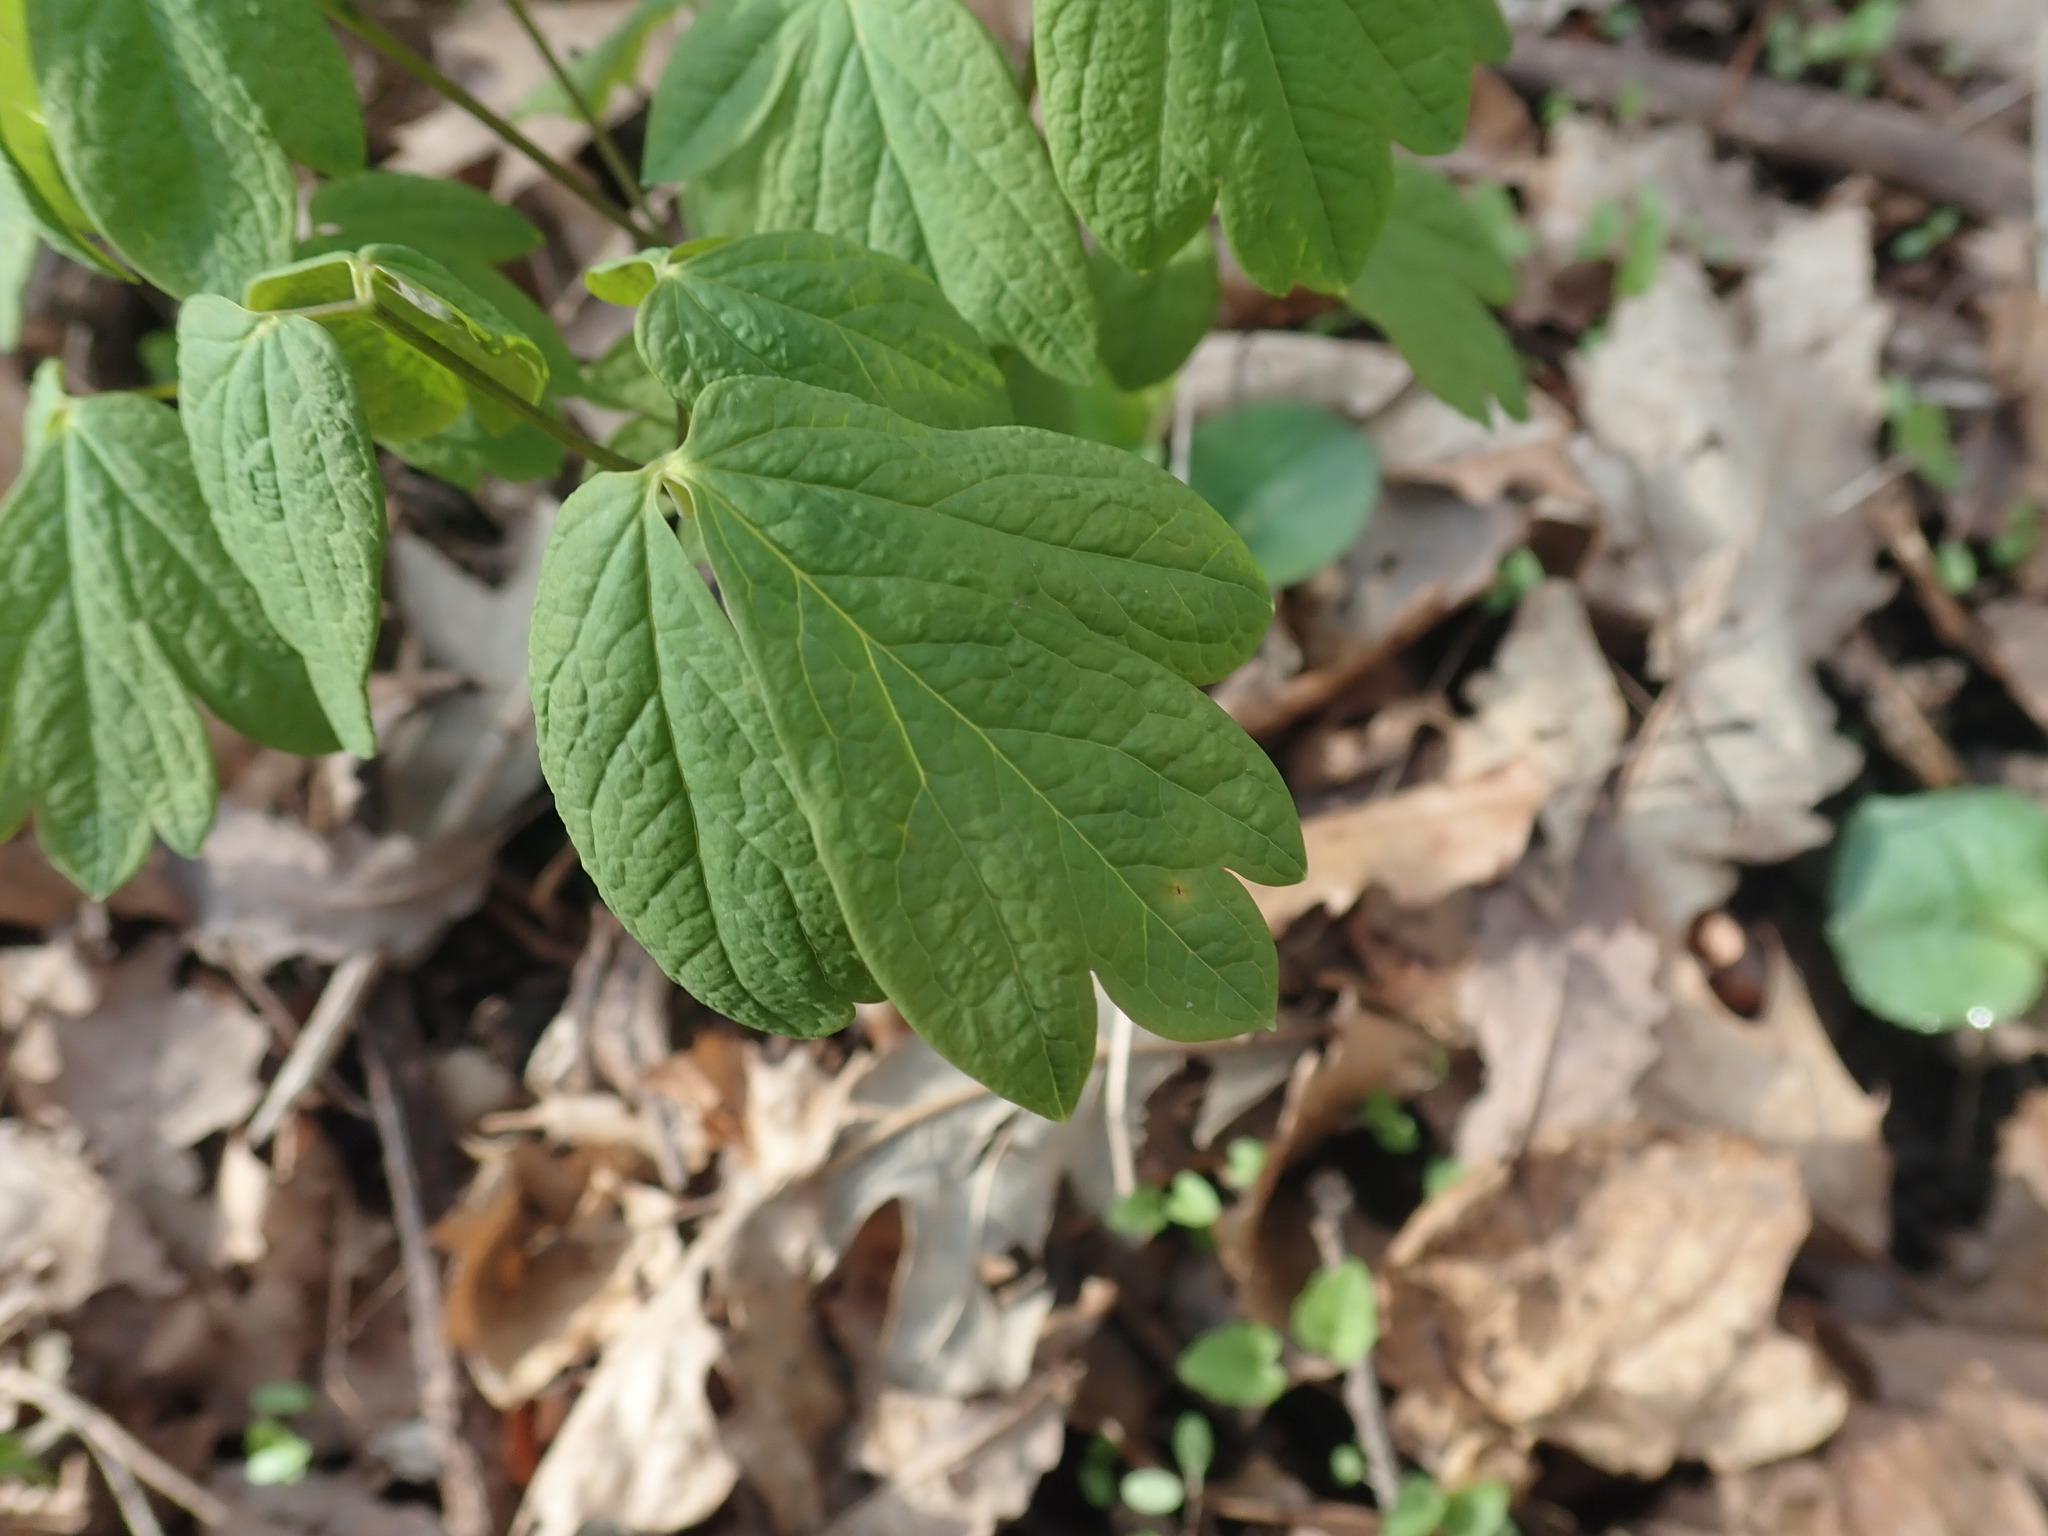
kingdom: Plantae
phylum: Tracheophyta
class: Magnoliopsida
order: Ranunculales
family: Berberidaceae
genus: Caulophyllum
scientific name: Caulophyllum thalictroides
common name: Blue cohosh
